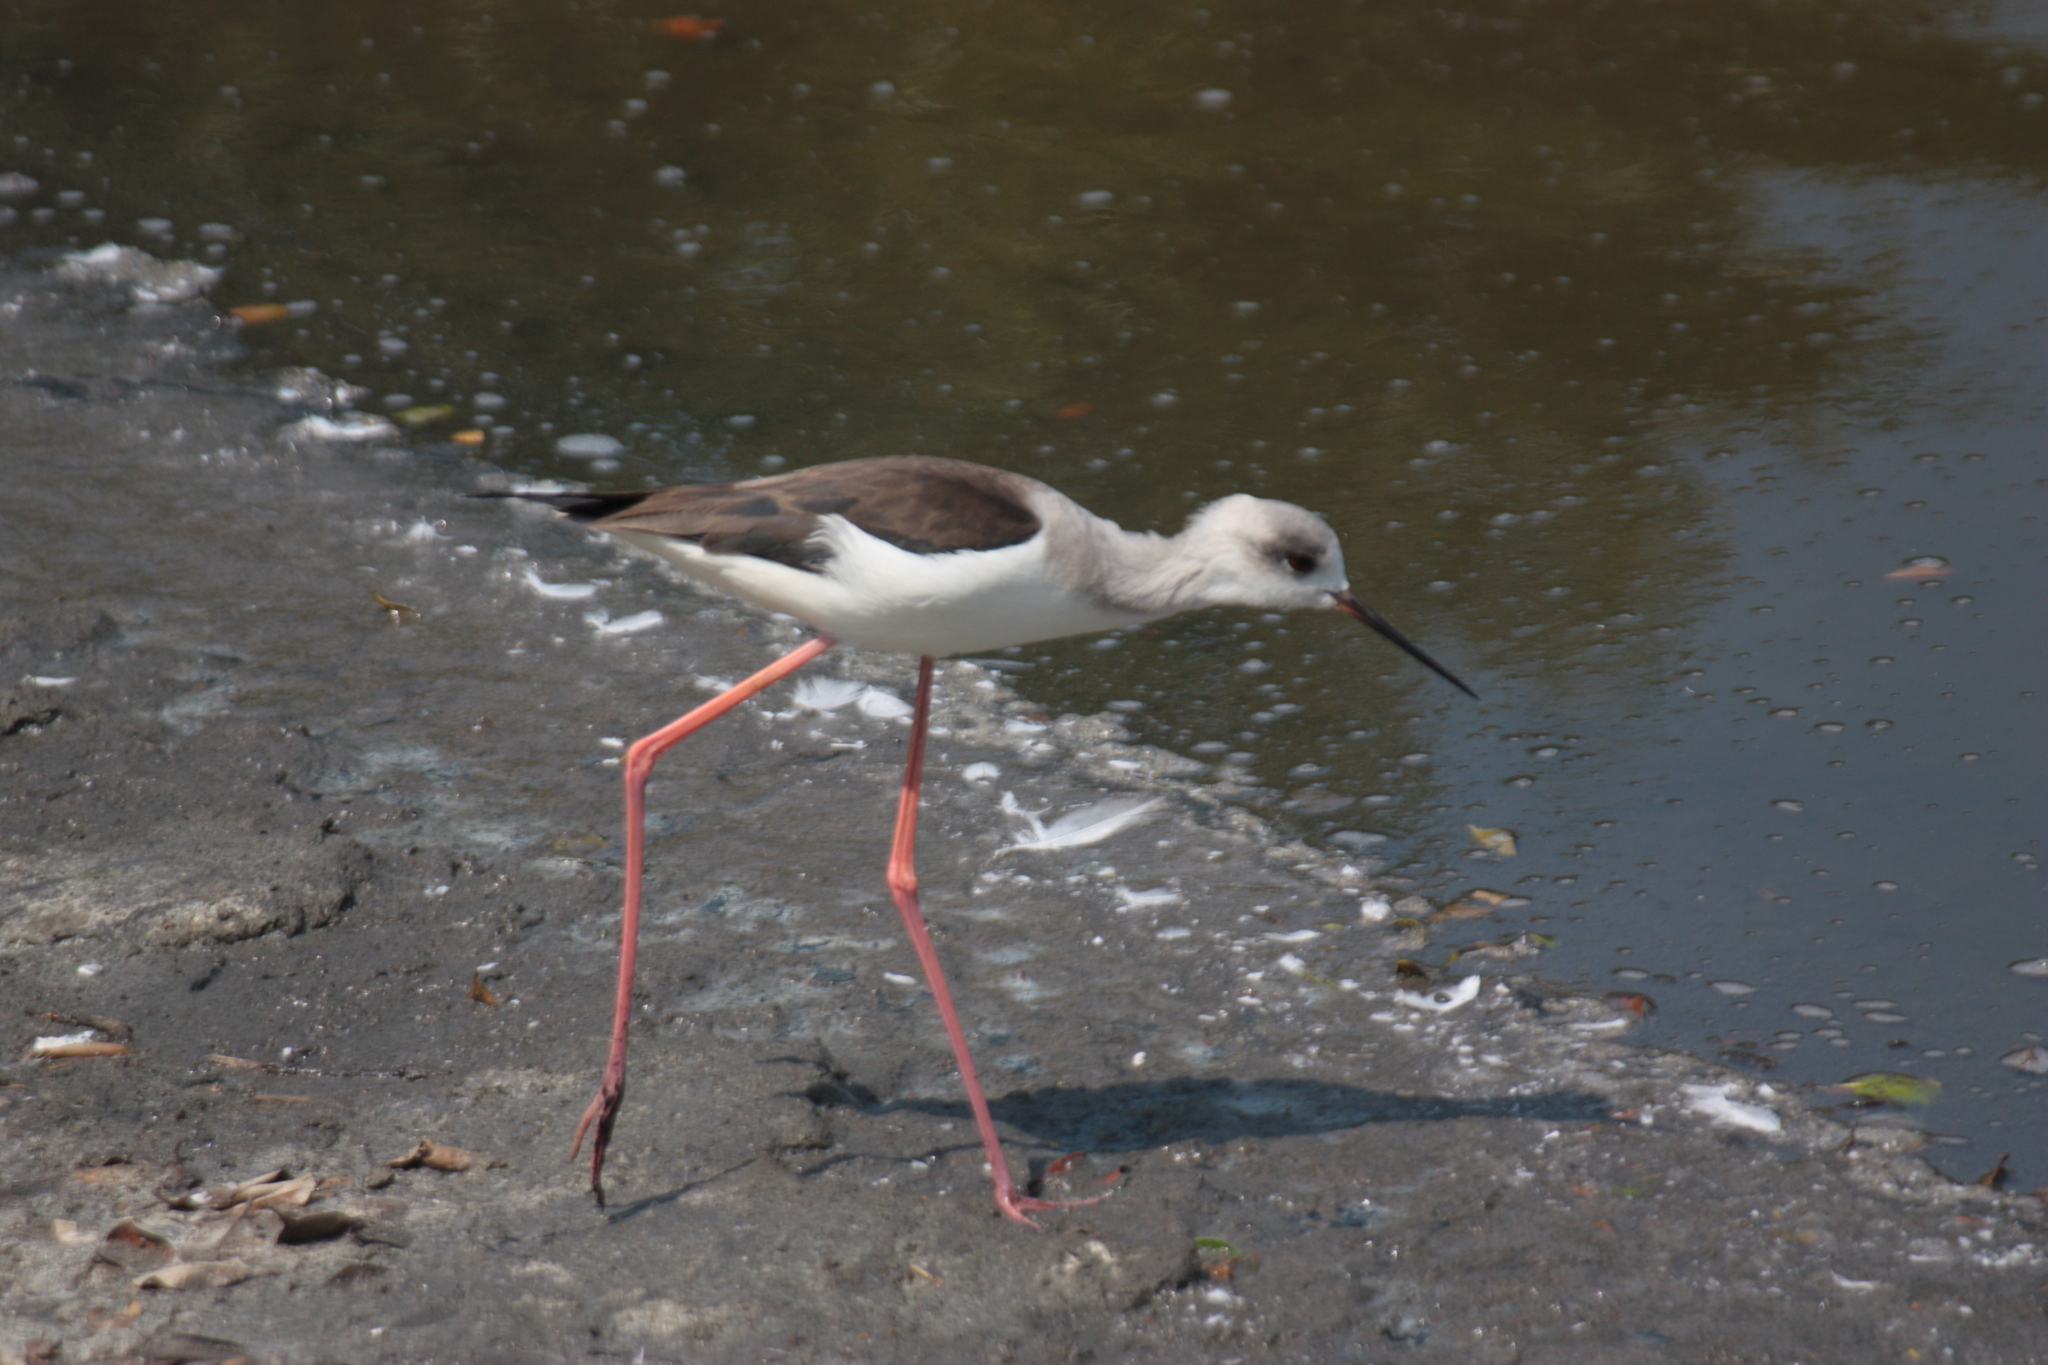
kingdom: Animalia
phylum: Chordata
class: Aves
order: Charadriiformes
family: Recurvirostridae
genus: Himantopus
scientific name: Himantopus himantopus
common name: Black-winged stilt
